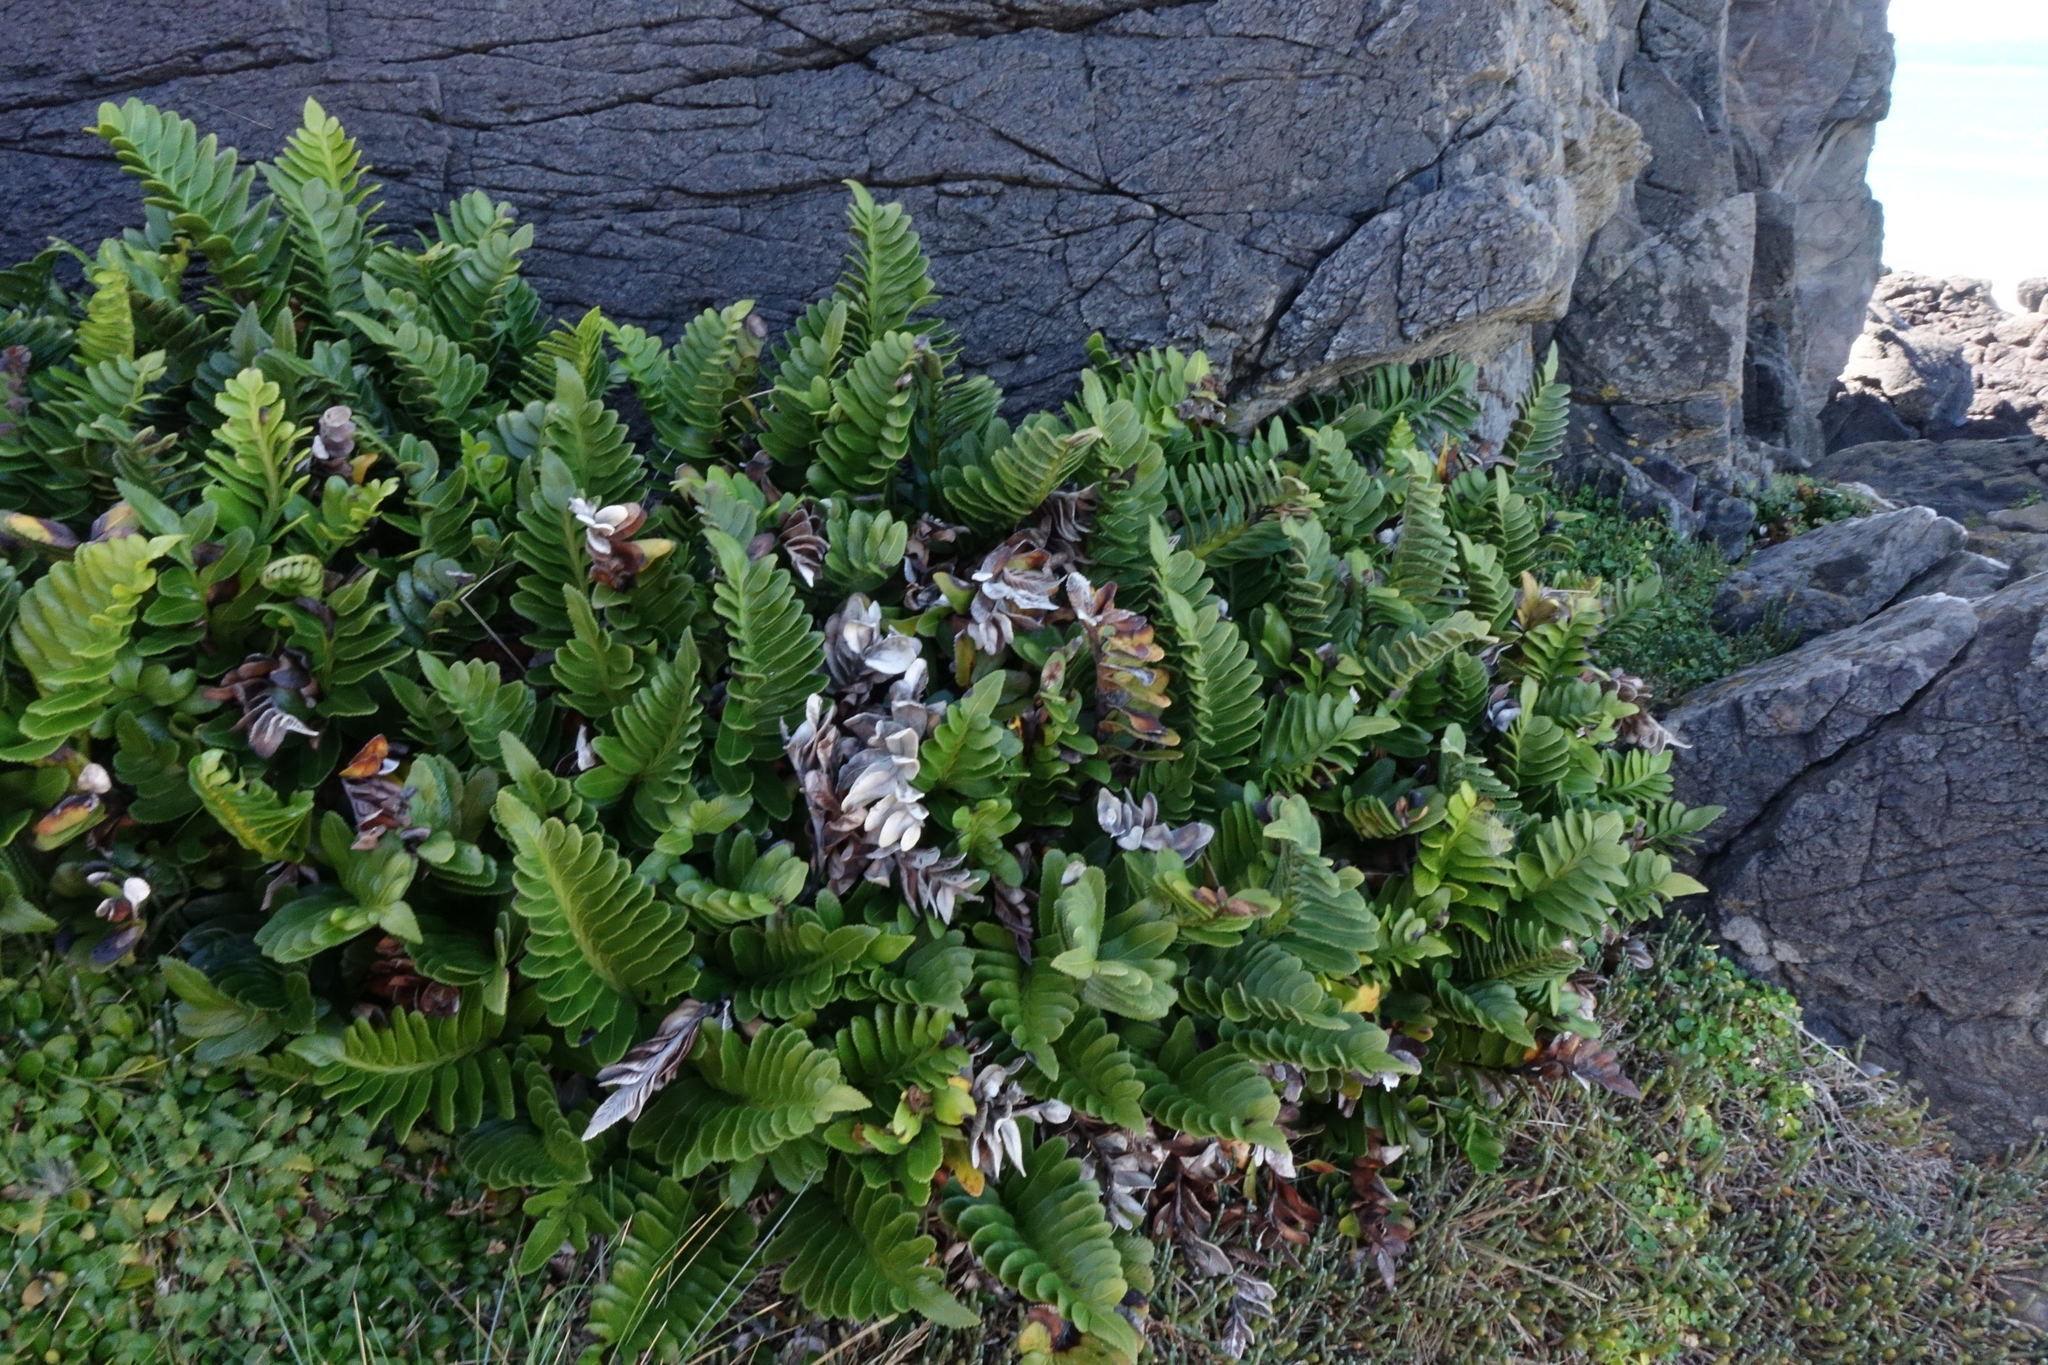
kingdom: Plantae
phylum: Tracheophyta
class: Polypodiopsida
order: Polypodiales
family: Aspleniaceae
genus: Asplenium
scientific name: Asplenium obtusatum
